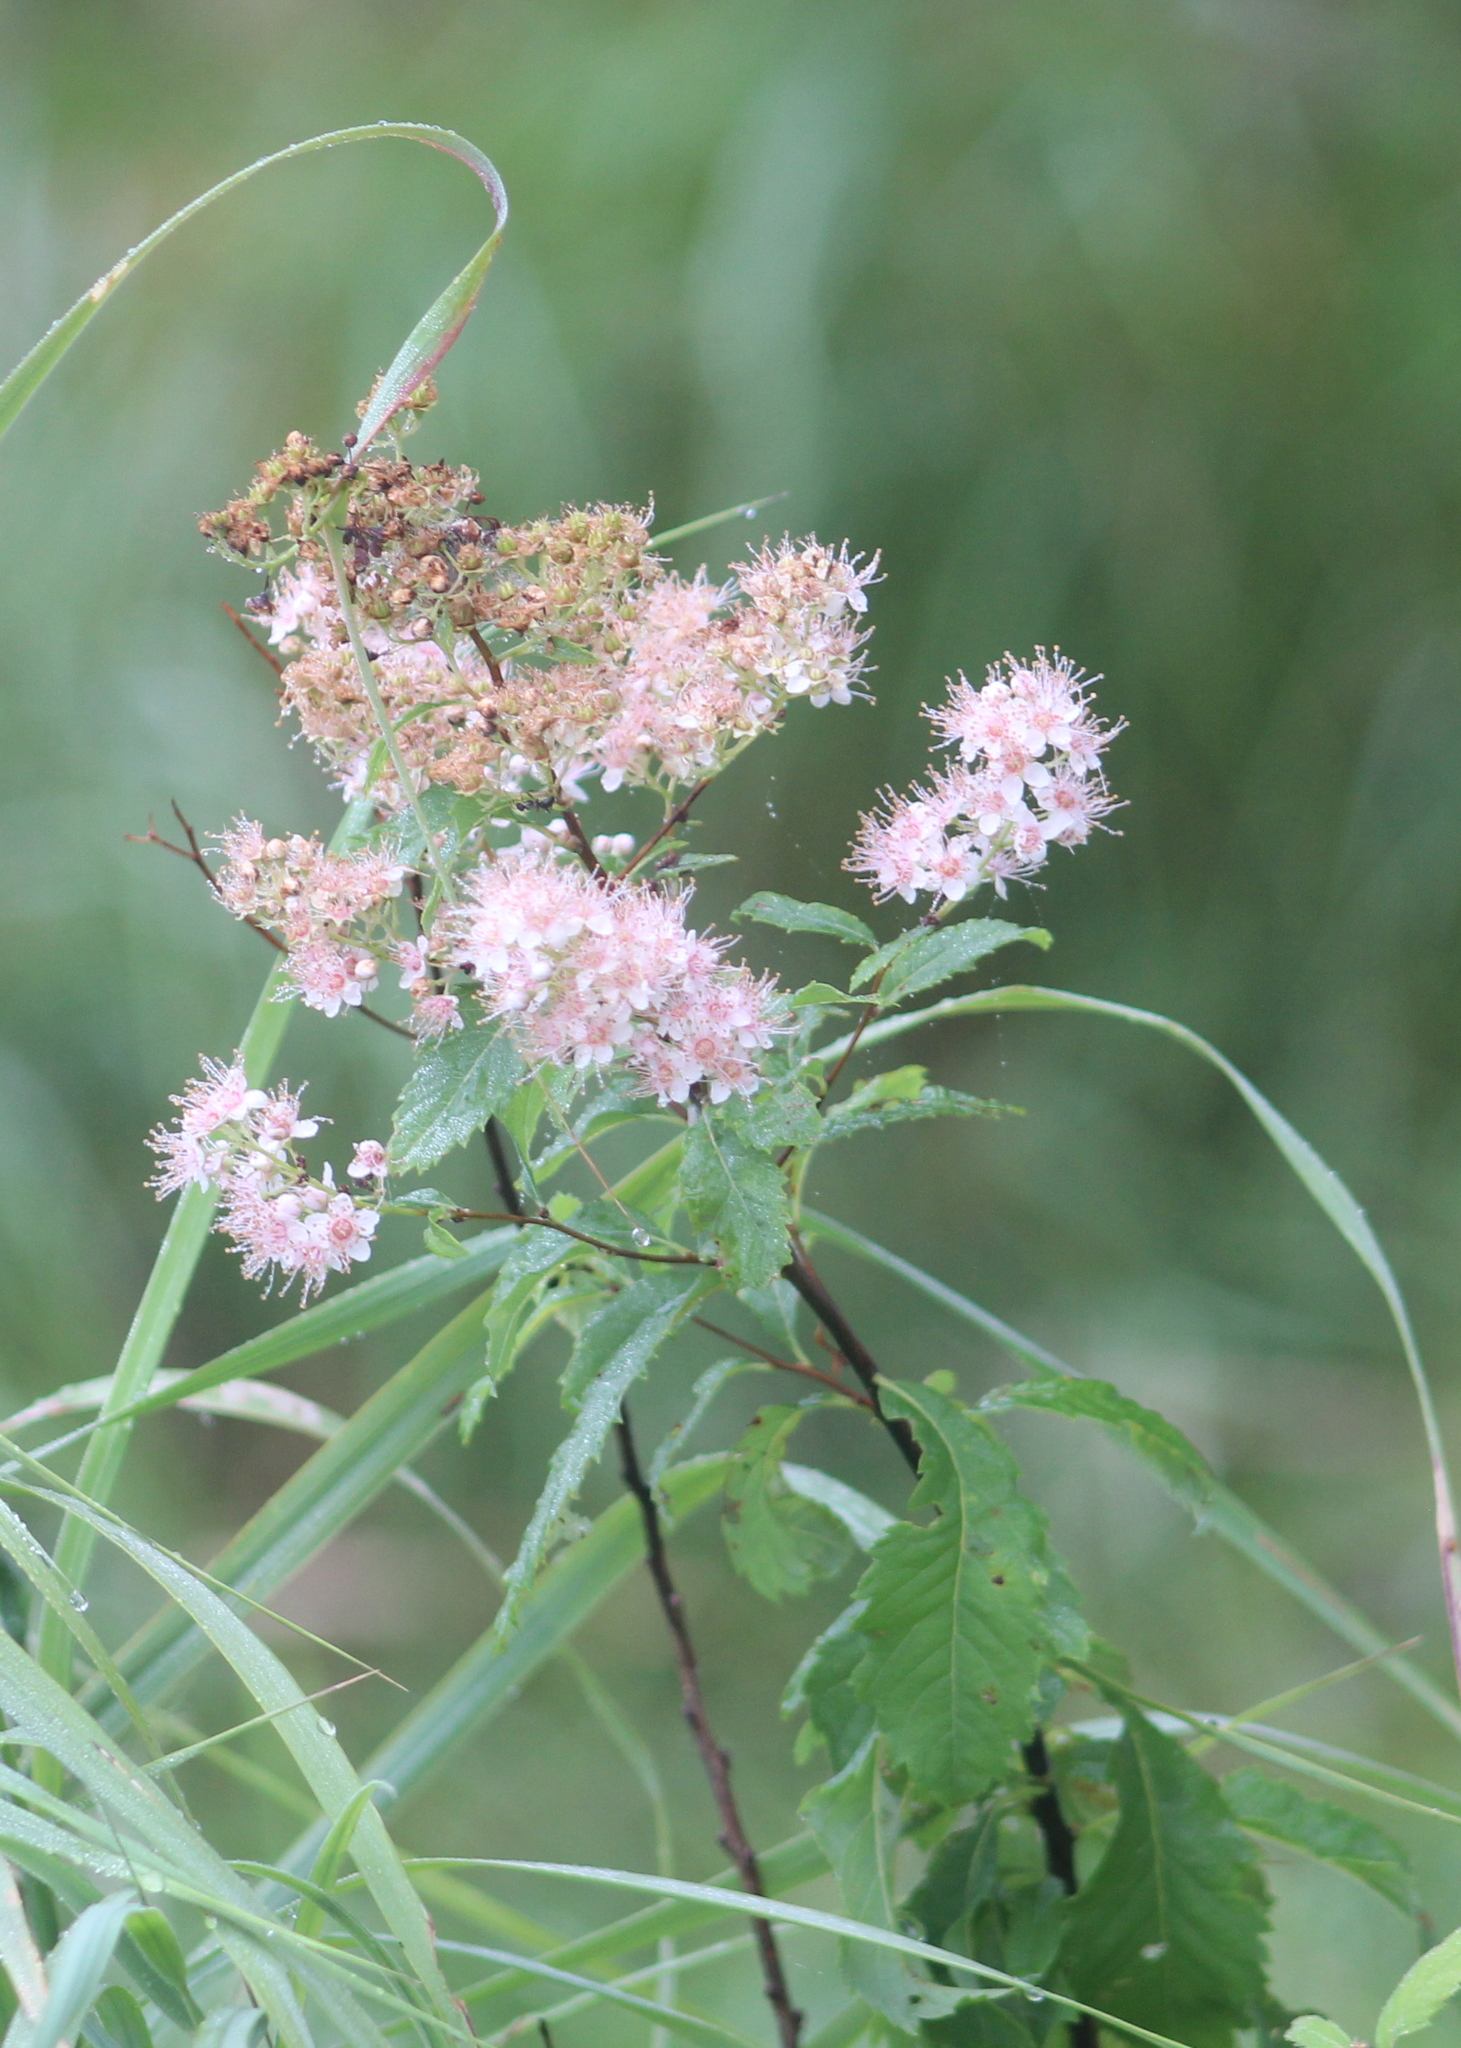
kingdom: Plantae
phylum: Tracheophyta
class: Magnoliopsida
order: Rosales
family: Rosaceae
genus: Spiraea
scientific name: Spiraea alba
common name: Pale bridewort
